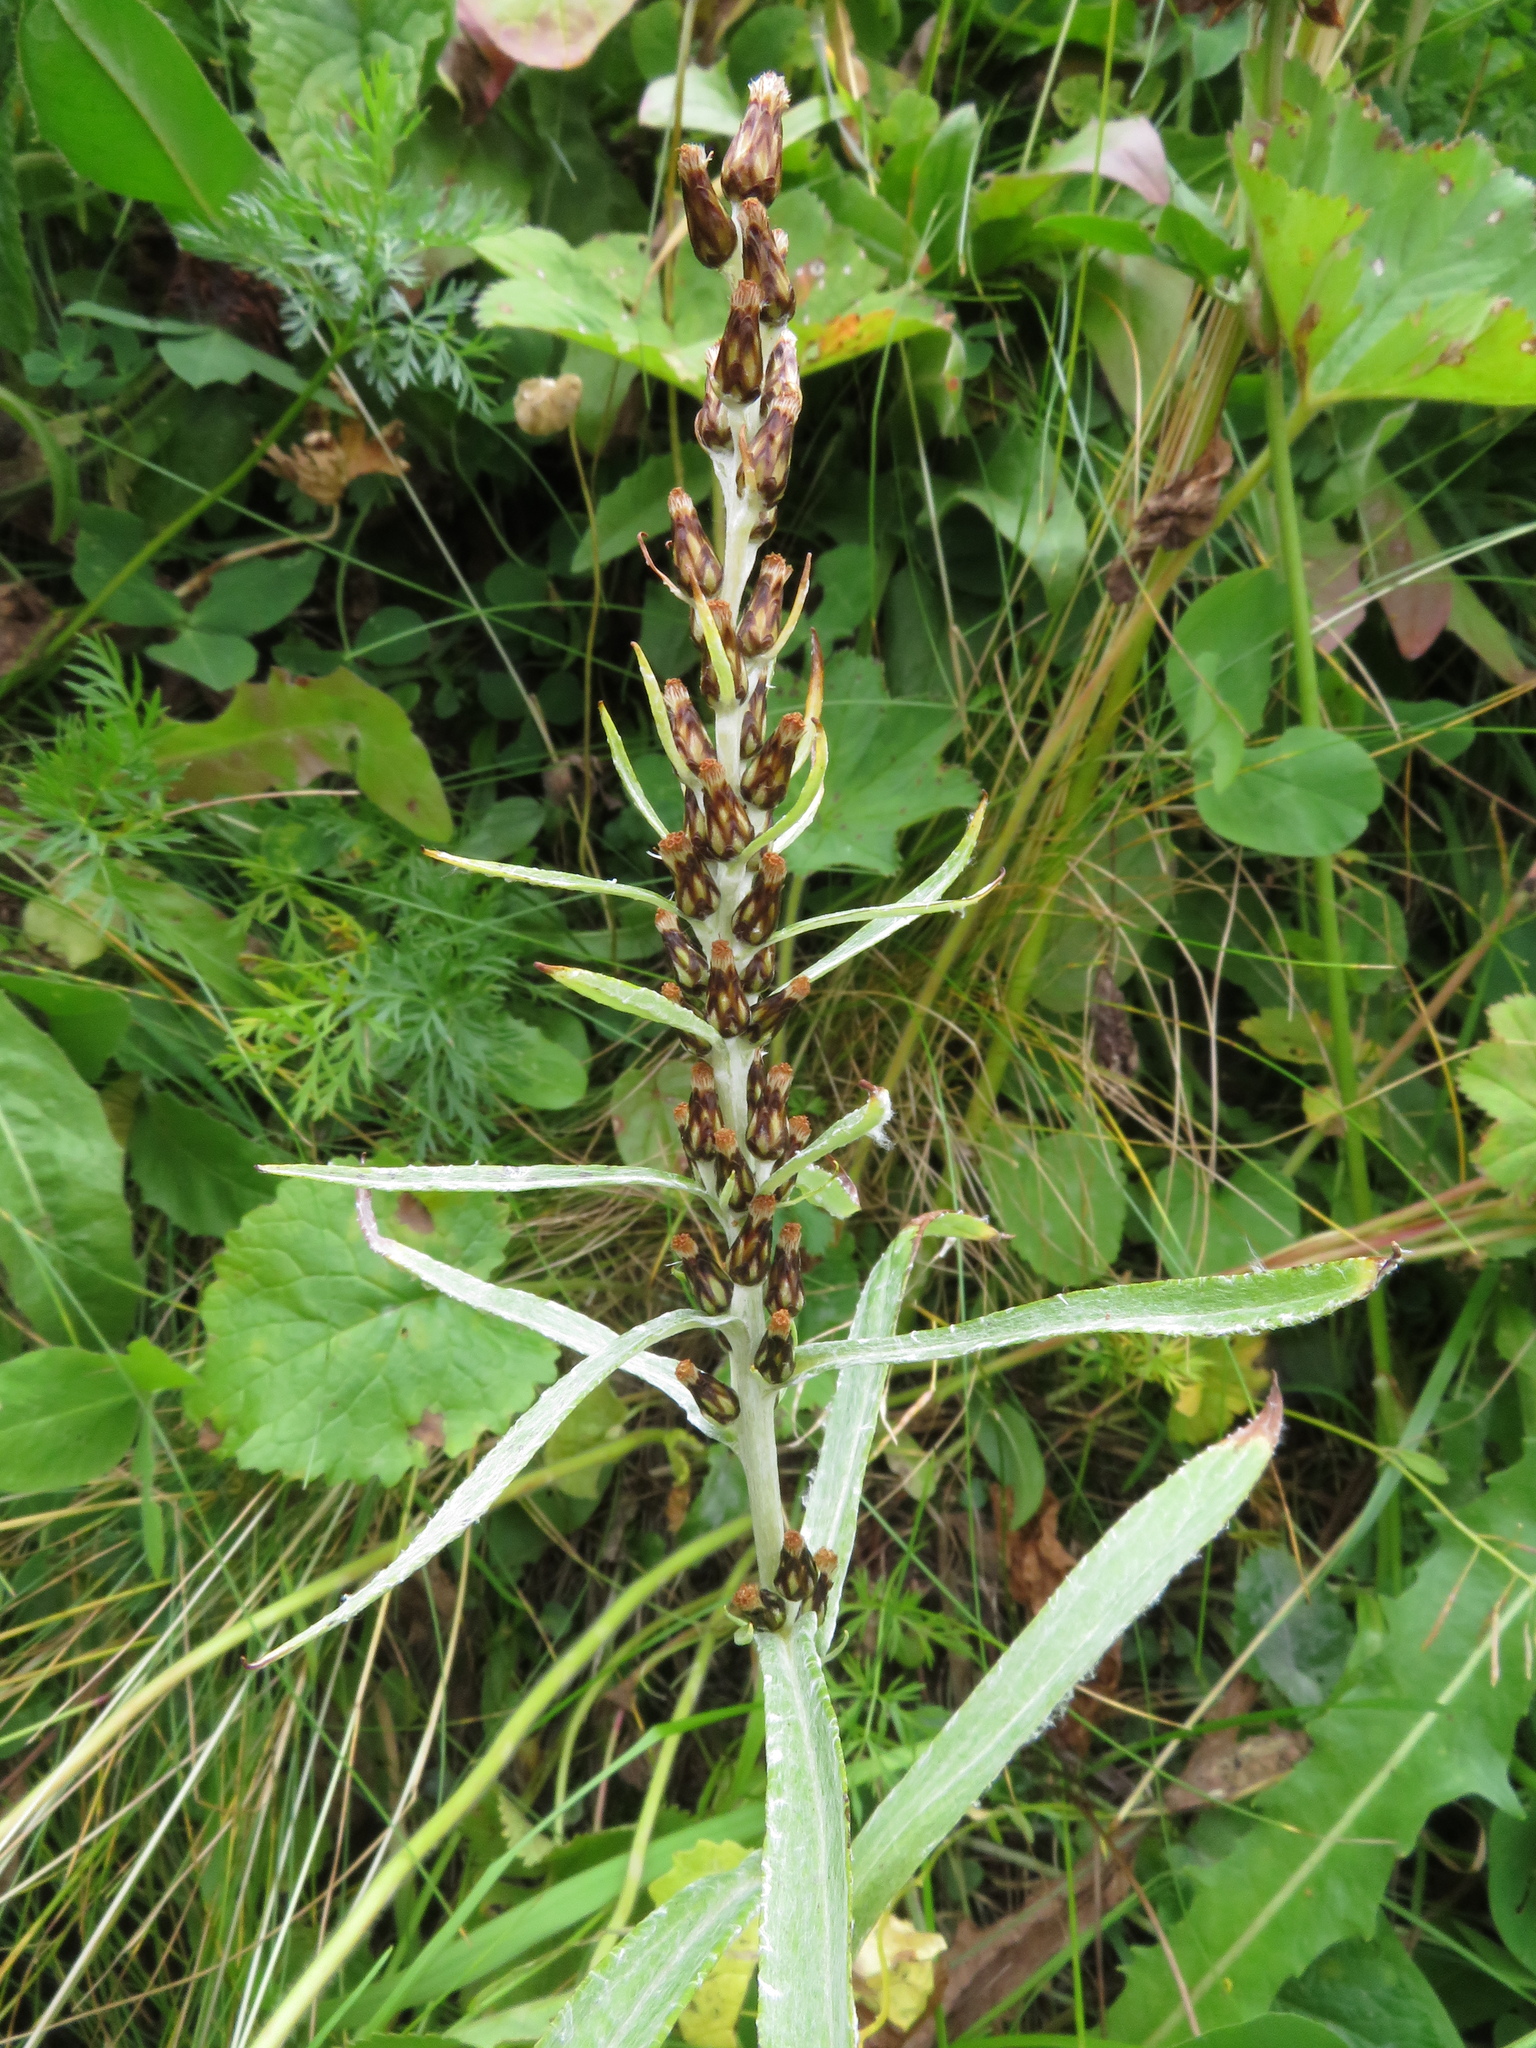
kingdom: Plantae
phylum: Tracheophyta
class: Magnoliopsida
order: Asterales
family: Asteraceae
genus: Omalotheca
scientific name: Omalotheca norvegica
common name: Norwegian arctic-cudweed
